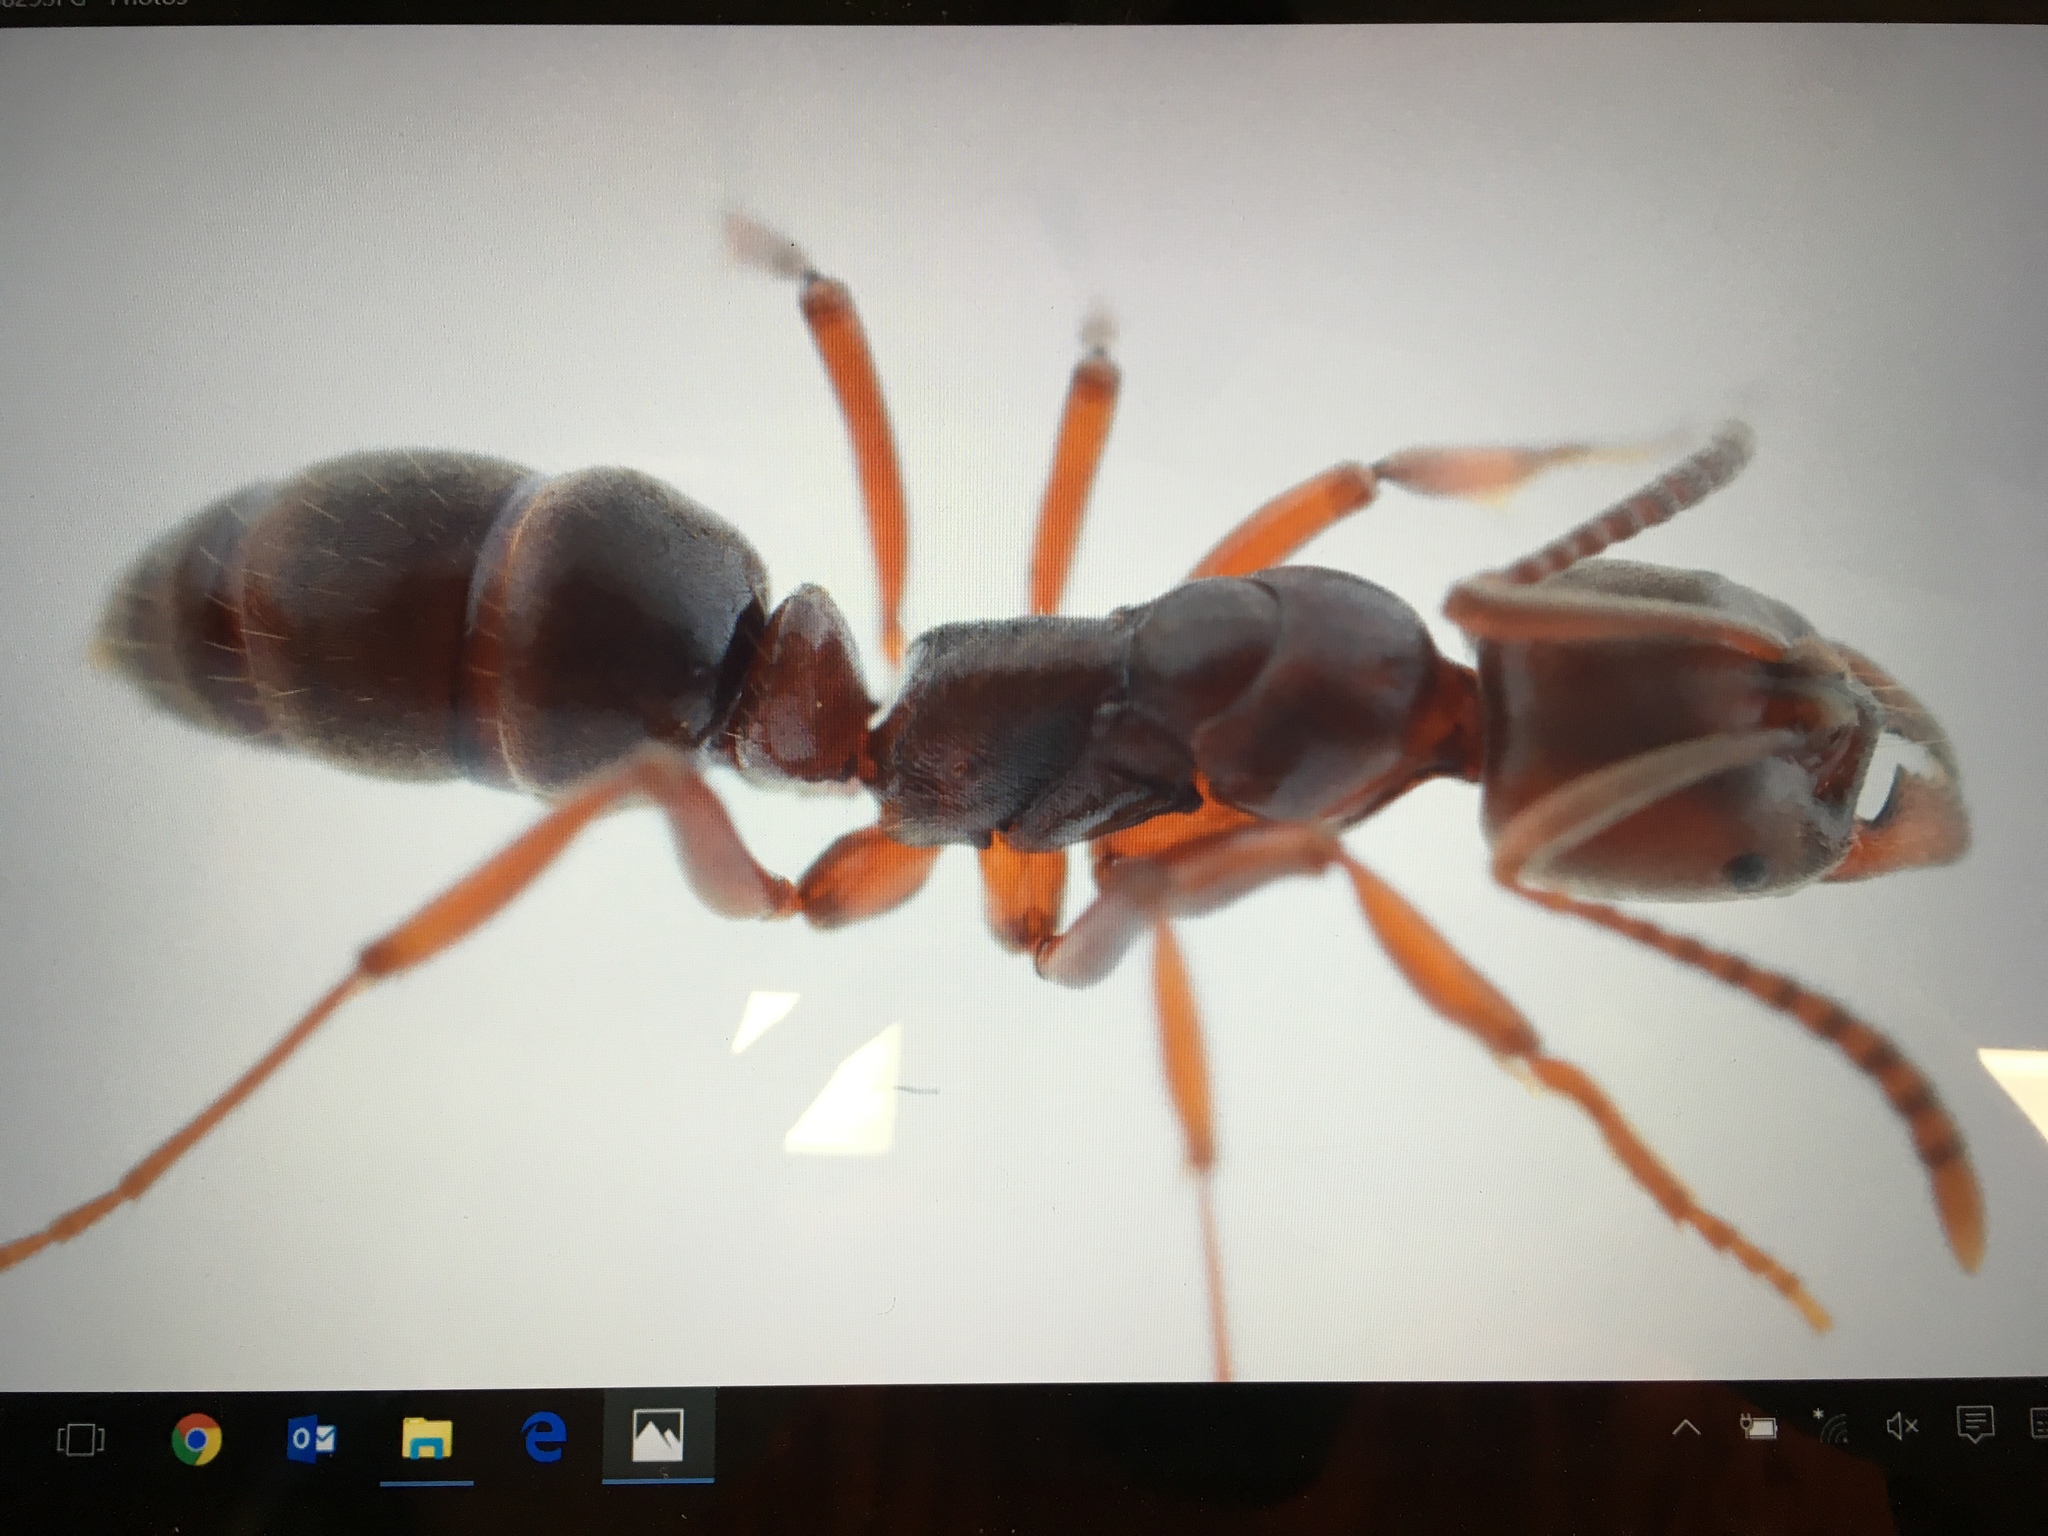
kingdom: Animalia
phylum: Arthropoda
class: Insecta
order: Hymenoptera
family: Formicidae
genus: Austroponera
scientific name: Austroponera
